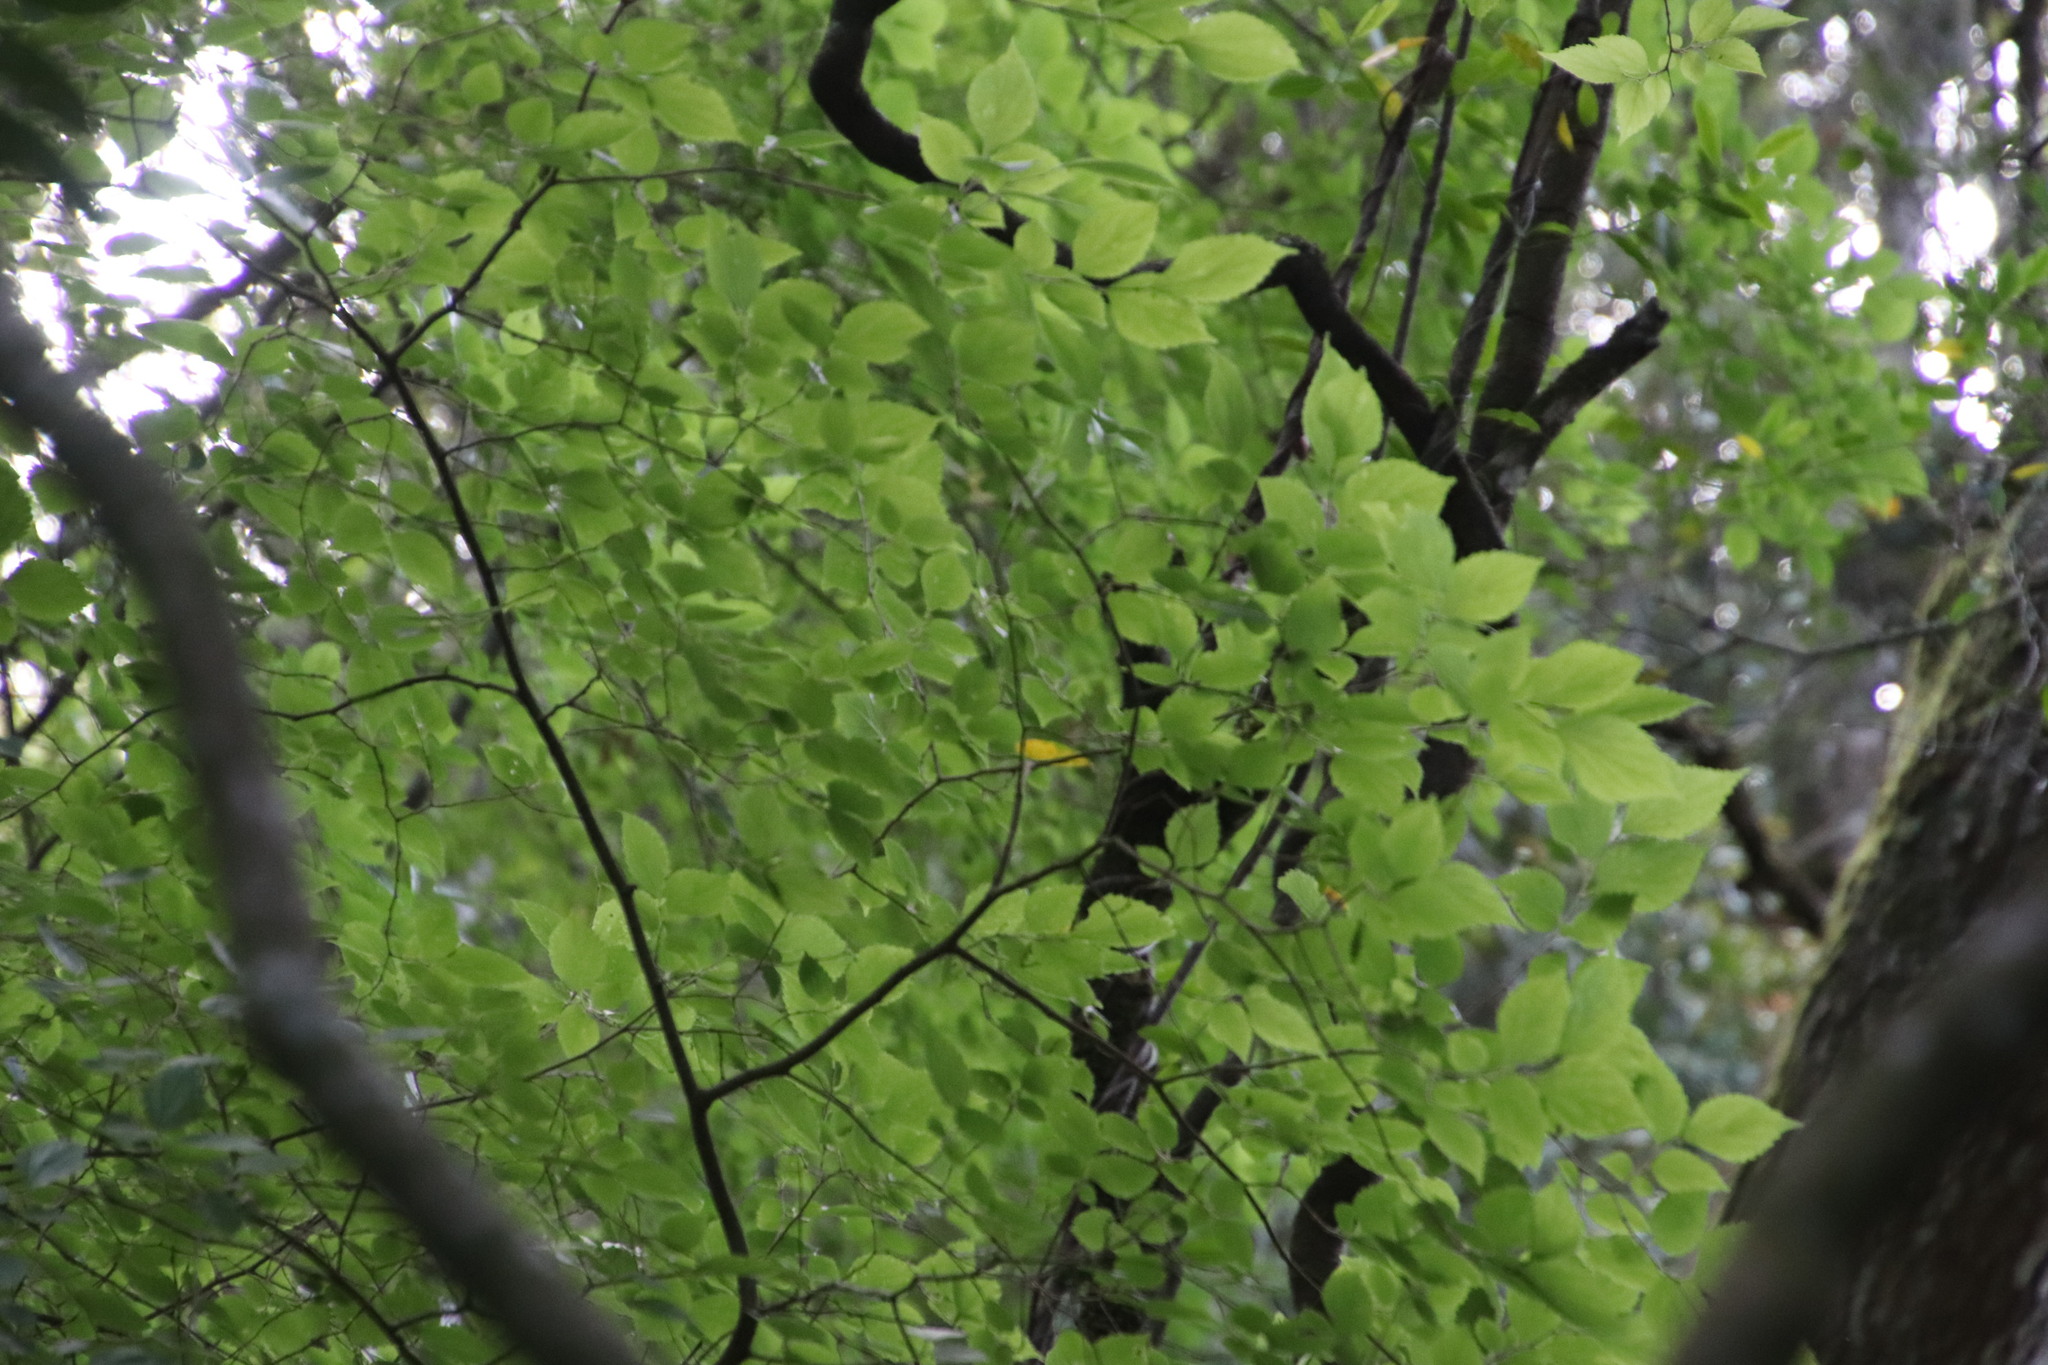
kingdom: Plantae
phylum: Tracheophyta
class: Magnoliopsida
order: Rosales
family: Cannabaceae
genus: Celtis
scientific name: Celtis africana
